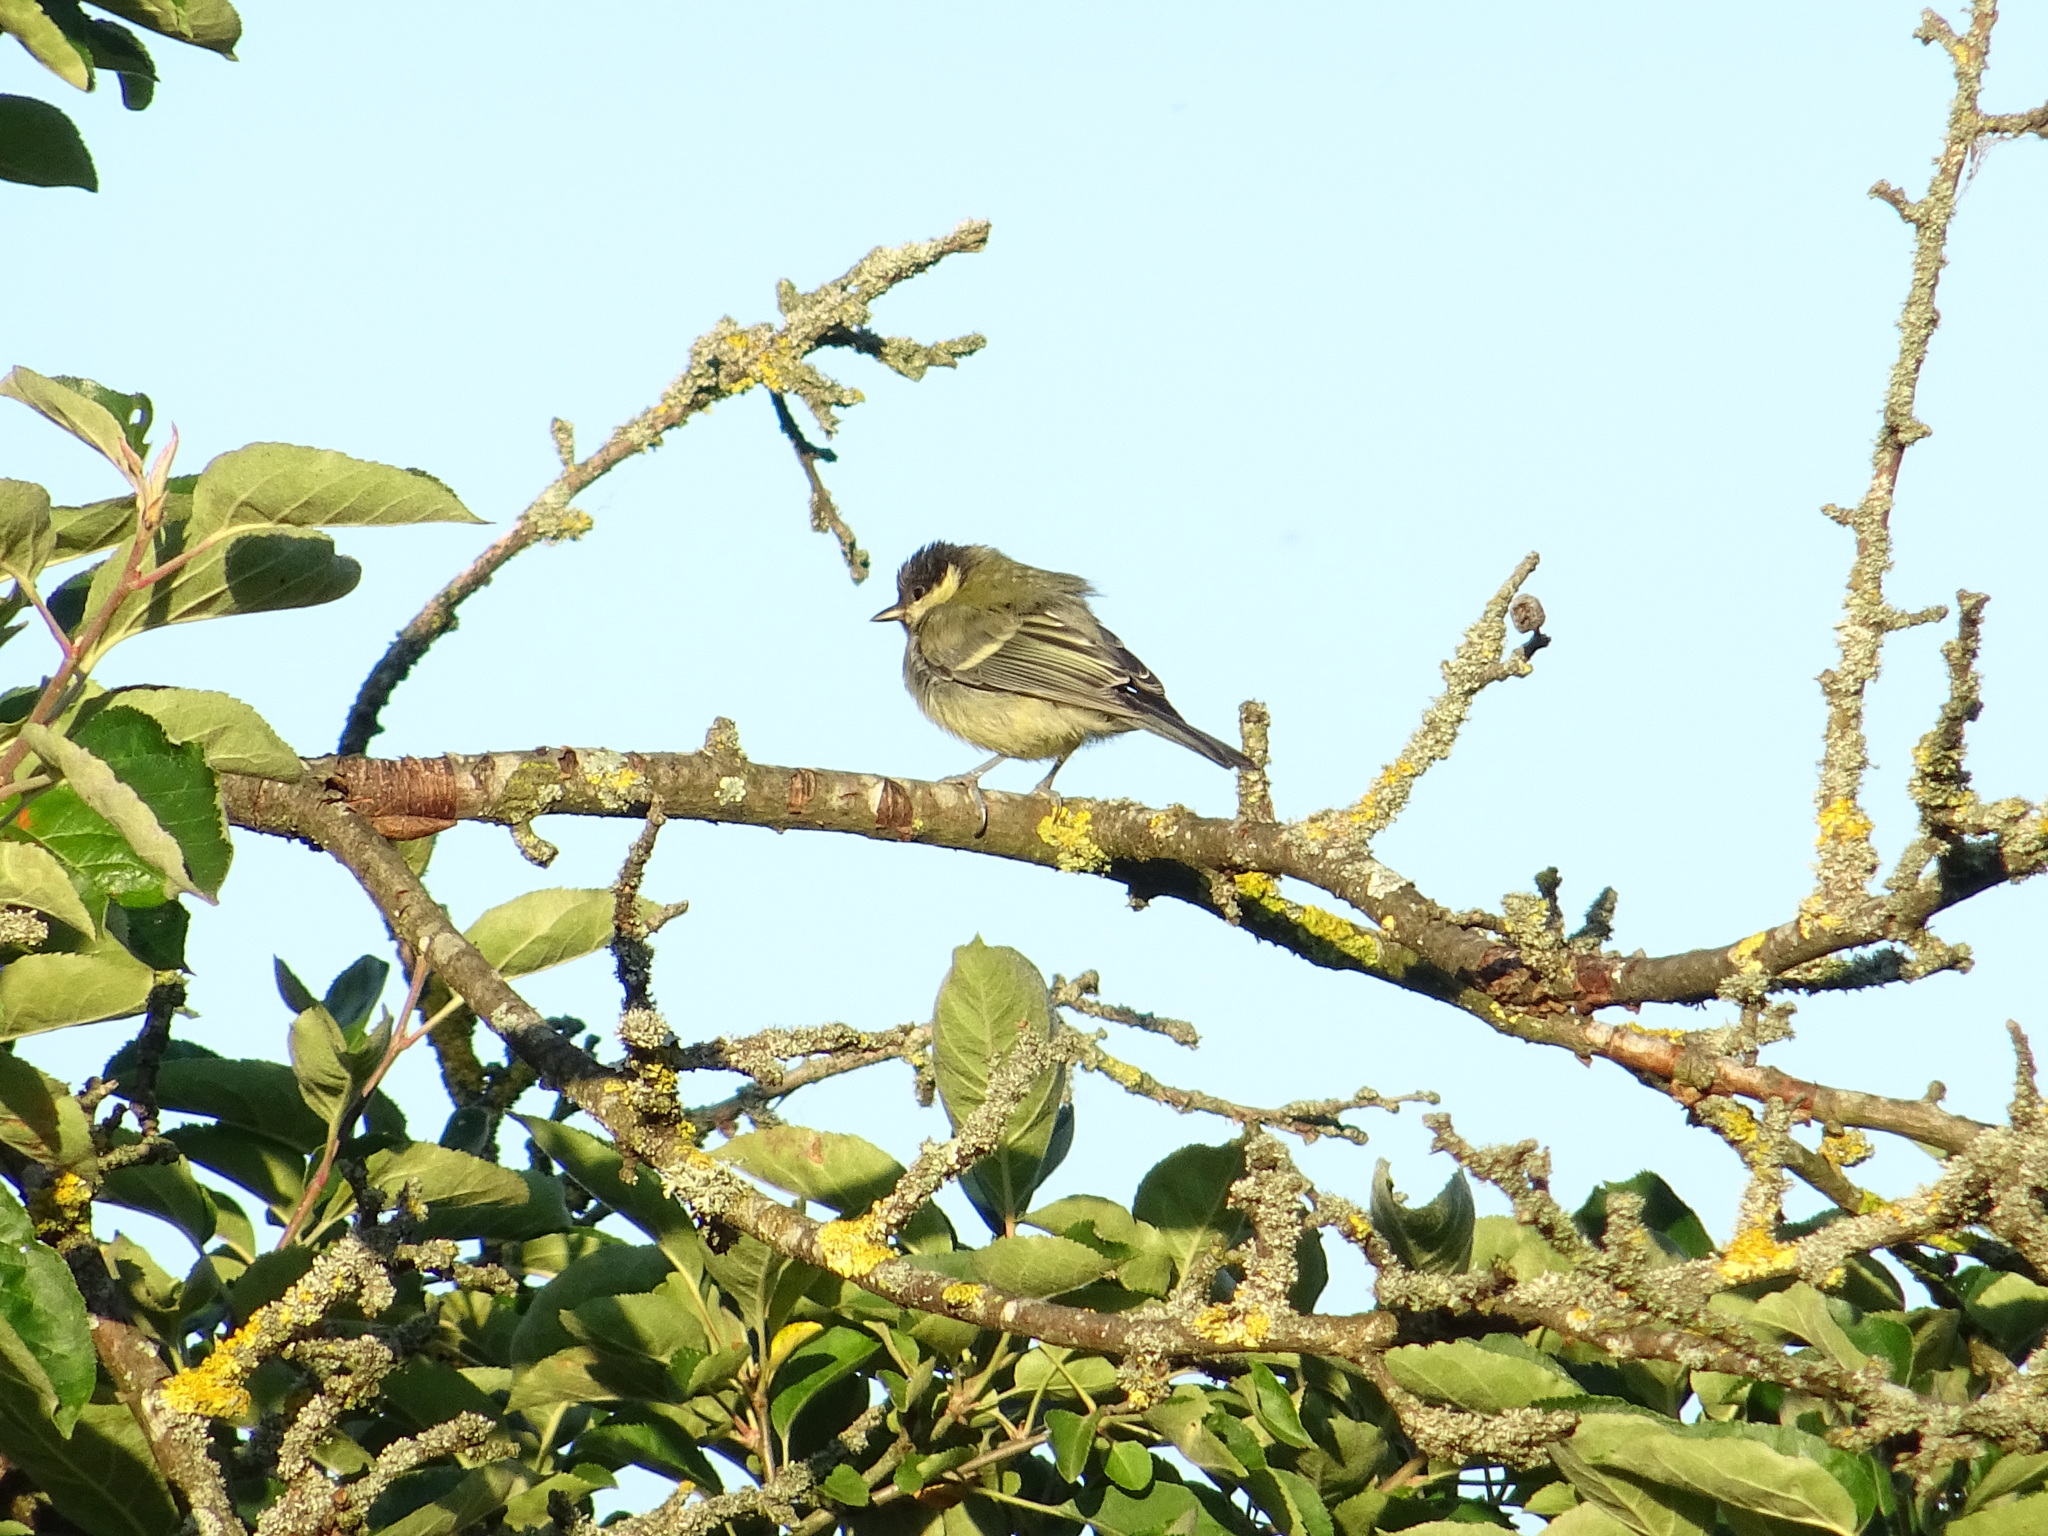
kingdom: Animalia
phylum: Chordata
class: Aves
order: Passeriformes
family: Paridae
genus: Parus
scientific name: Parus major
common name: Great tit
